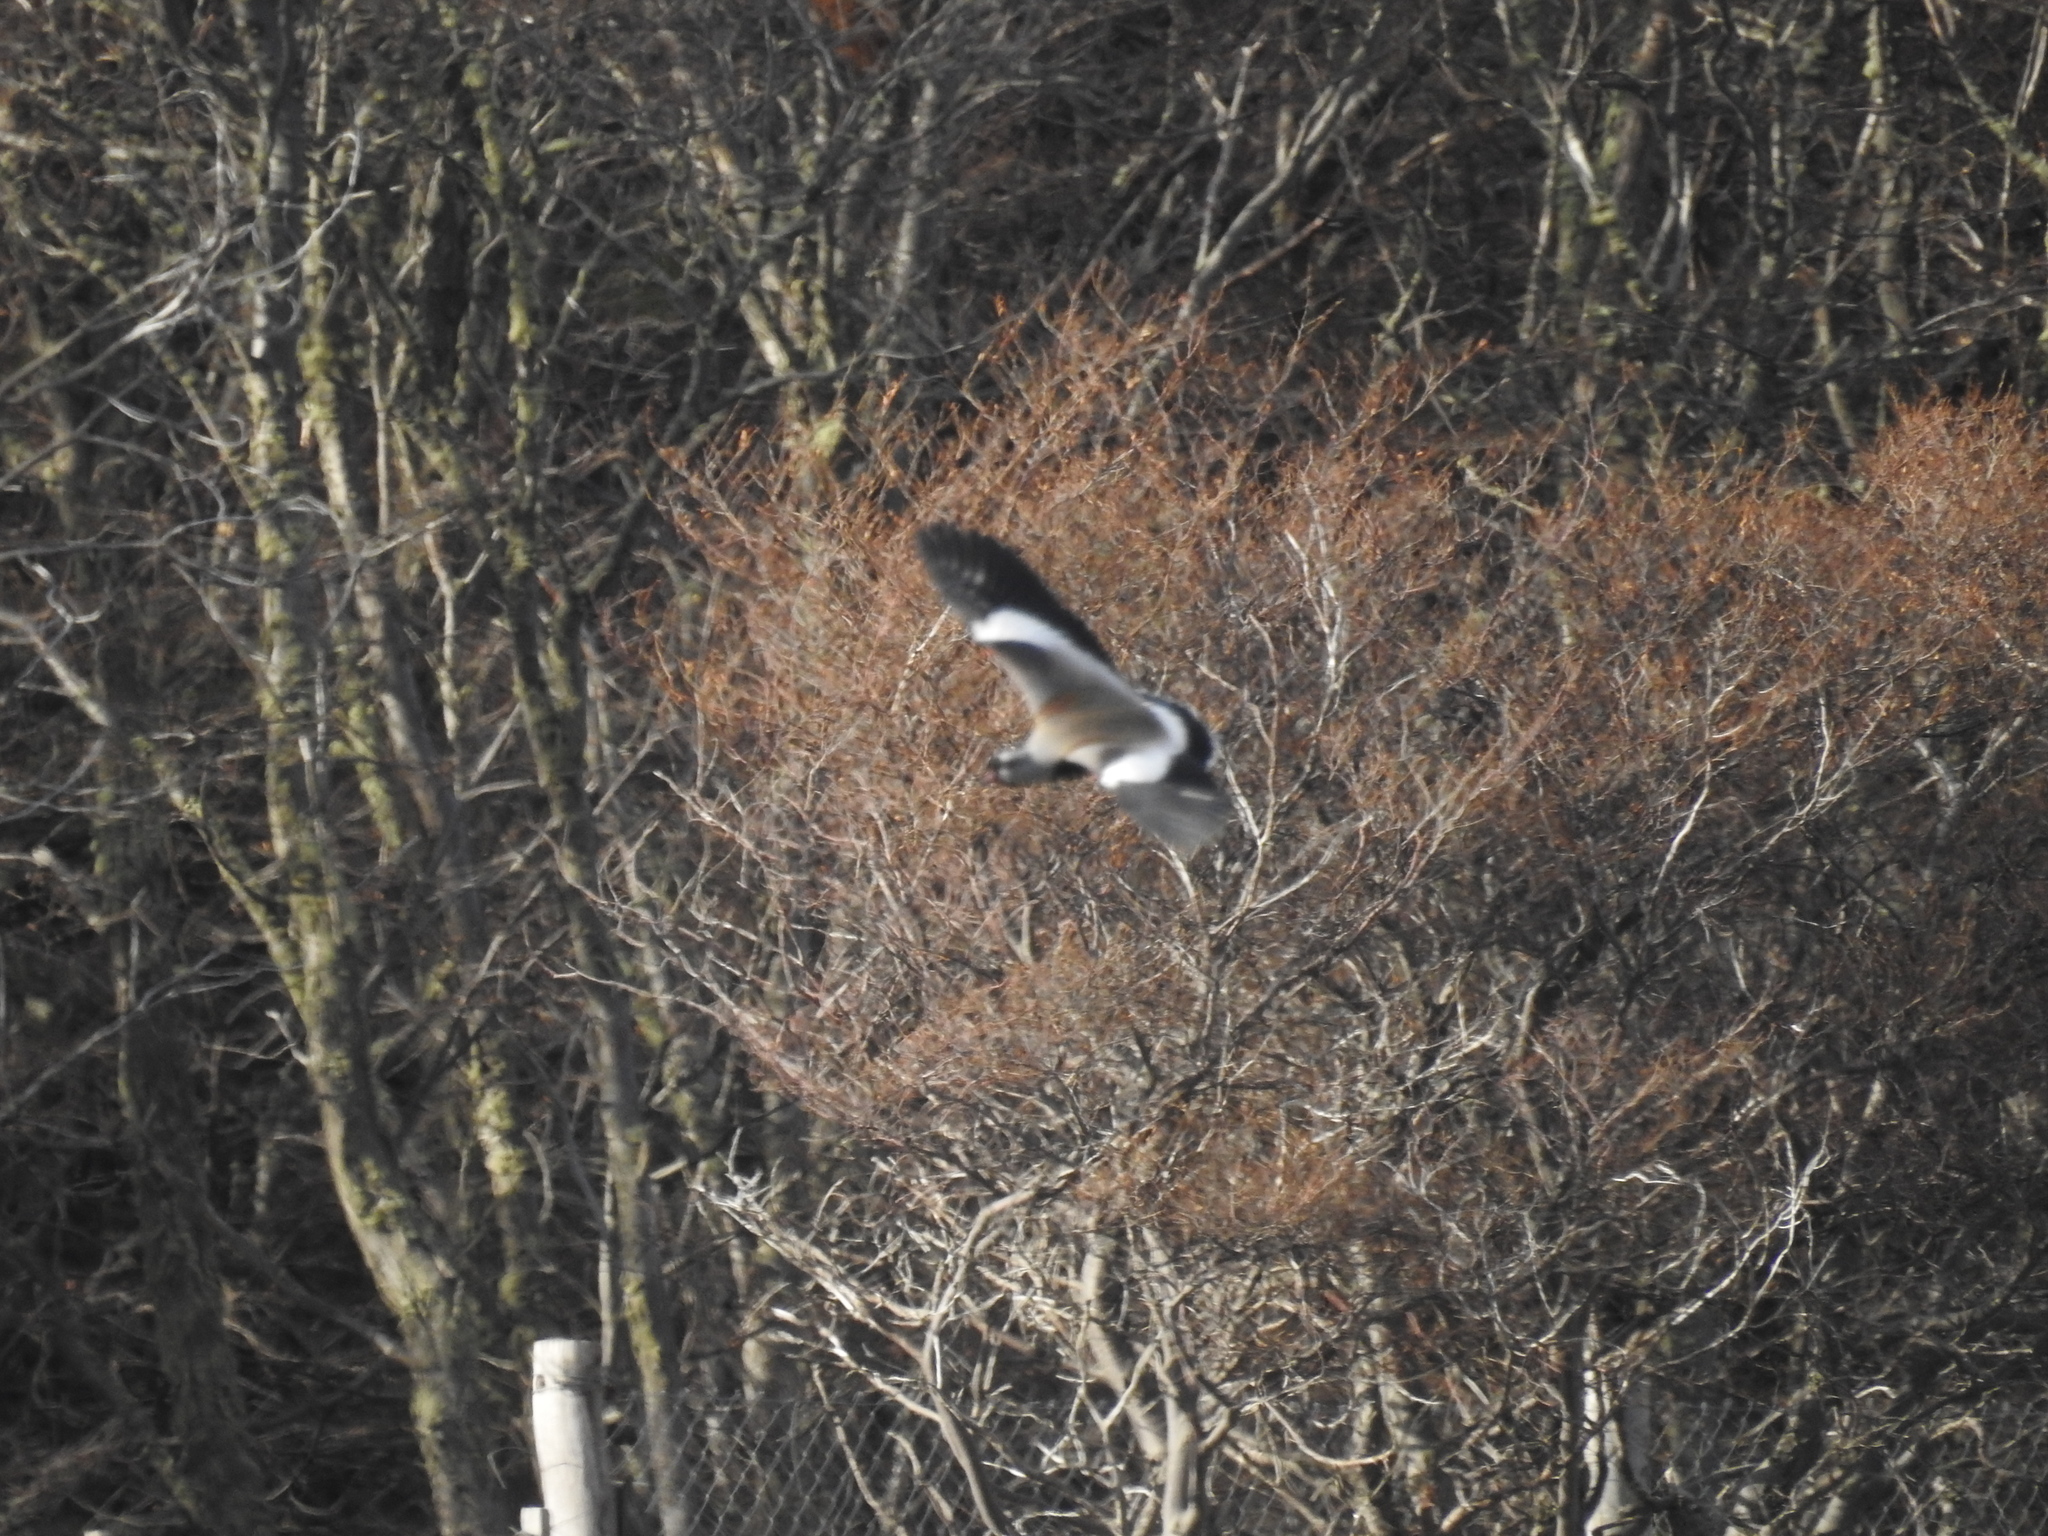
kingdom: Animalia
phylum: Chordata
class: Aves
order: Charadriiformes
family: Charadriidae
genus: Vanellus
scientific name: Vanellus chilensis
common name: Southern lapwing
